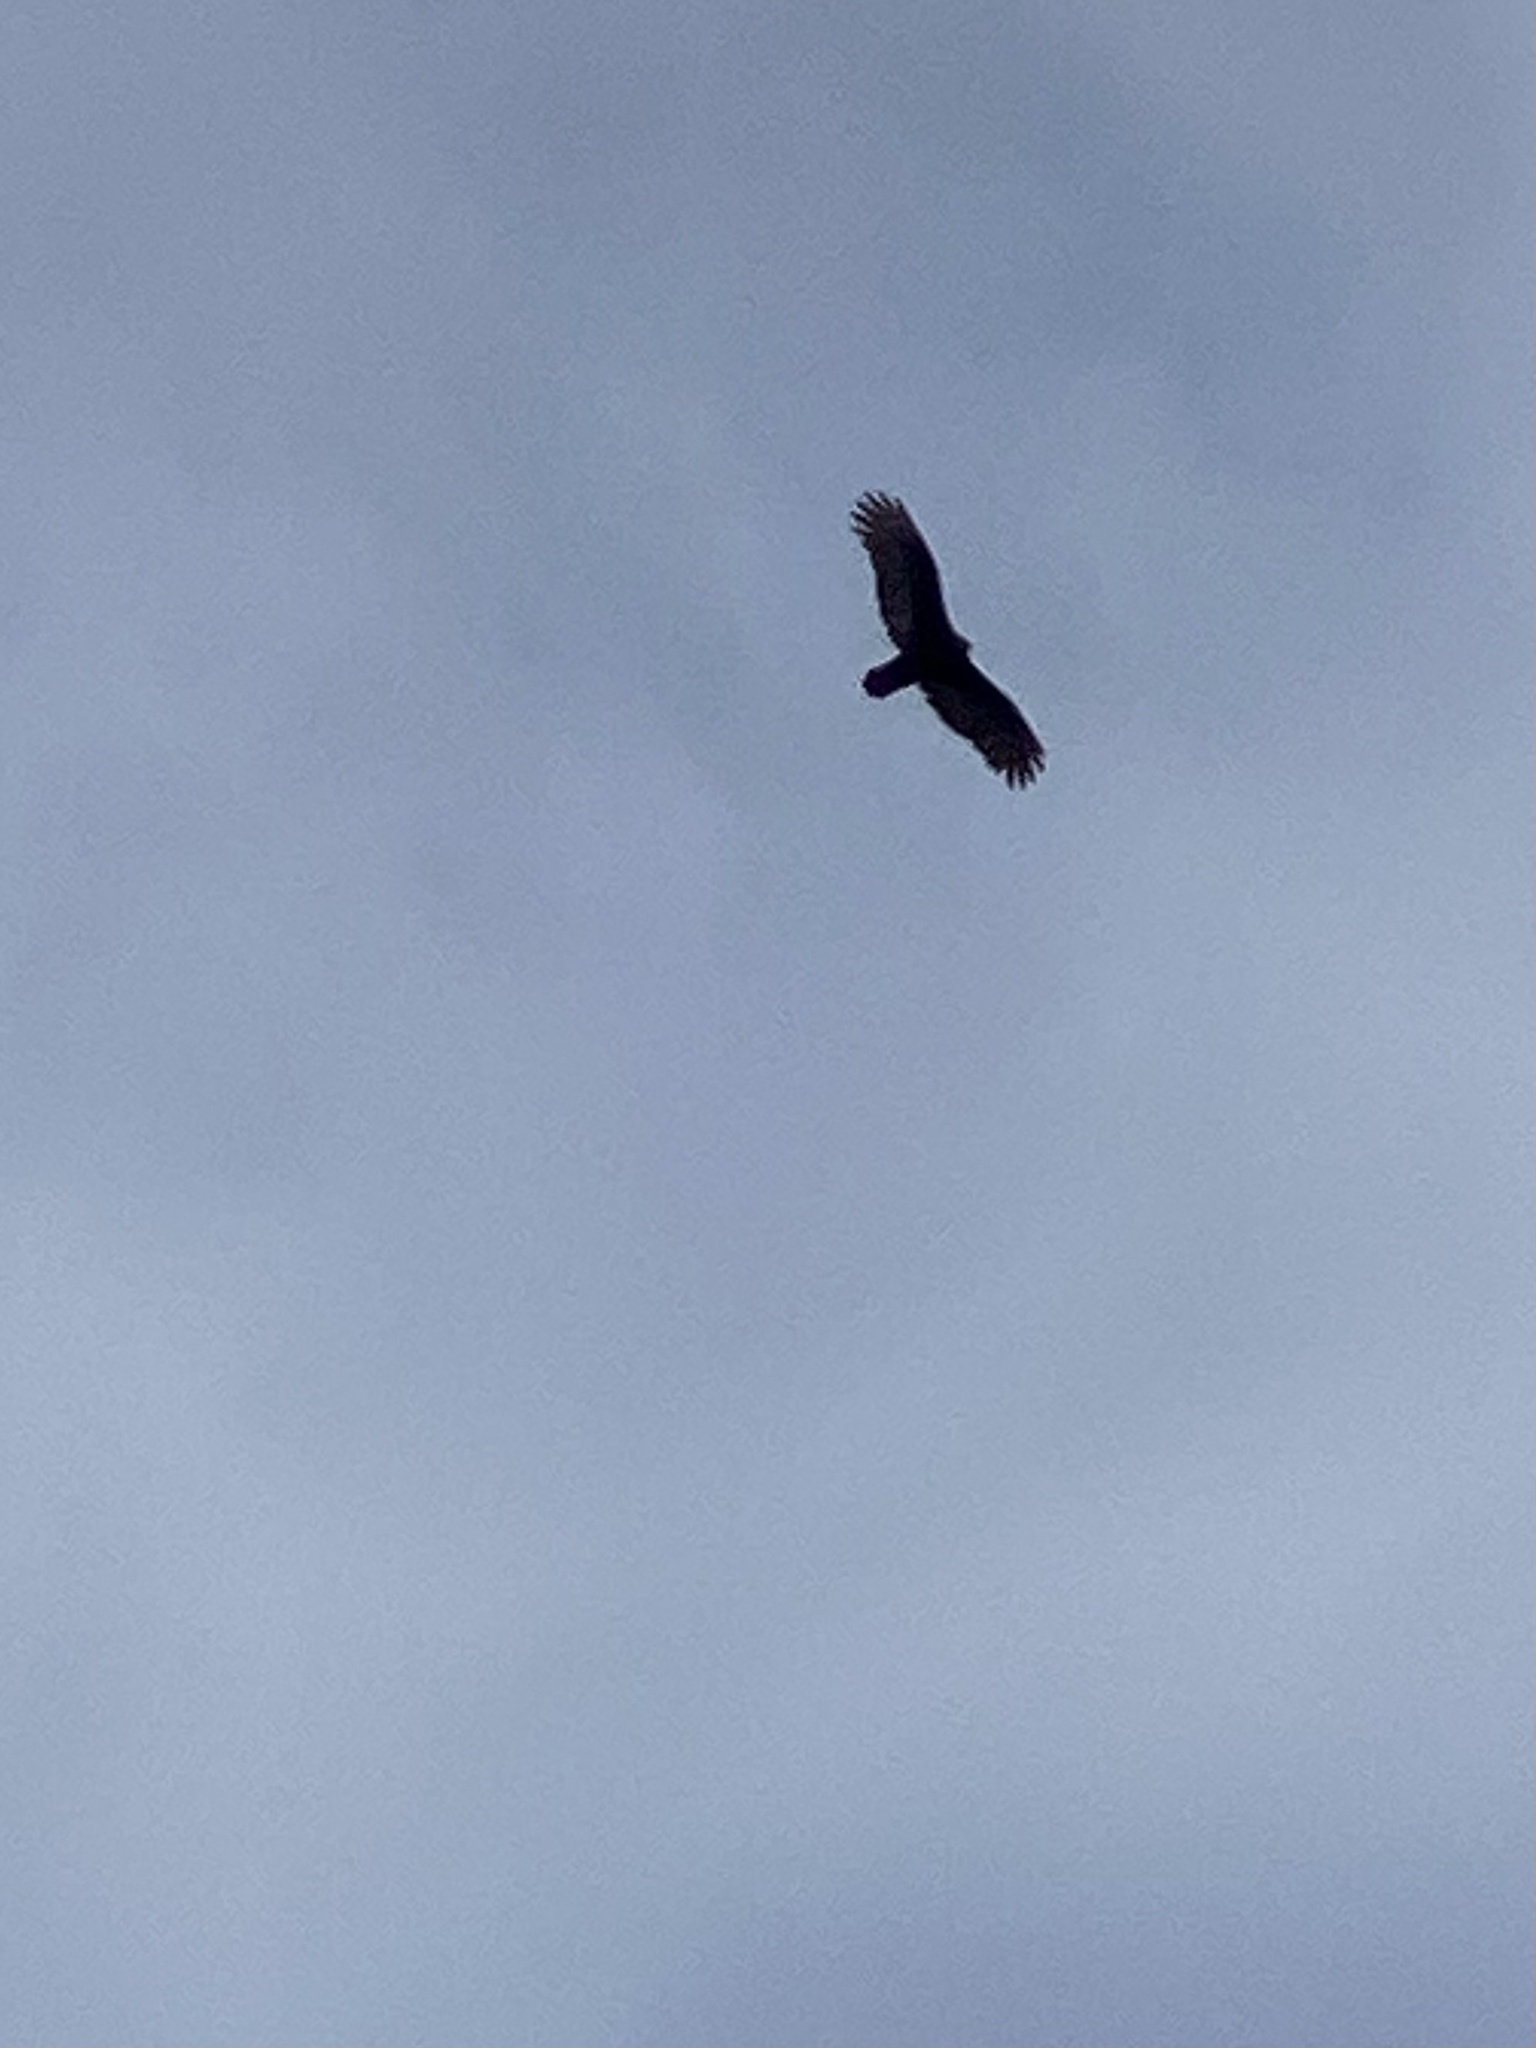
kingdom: Animalia
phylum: Chordata
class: Aves
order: Accipitriformes
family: Cathartidae
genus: Cathartes
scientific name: Cathartes aura
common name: Turkey vulture
